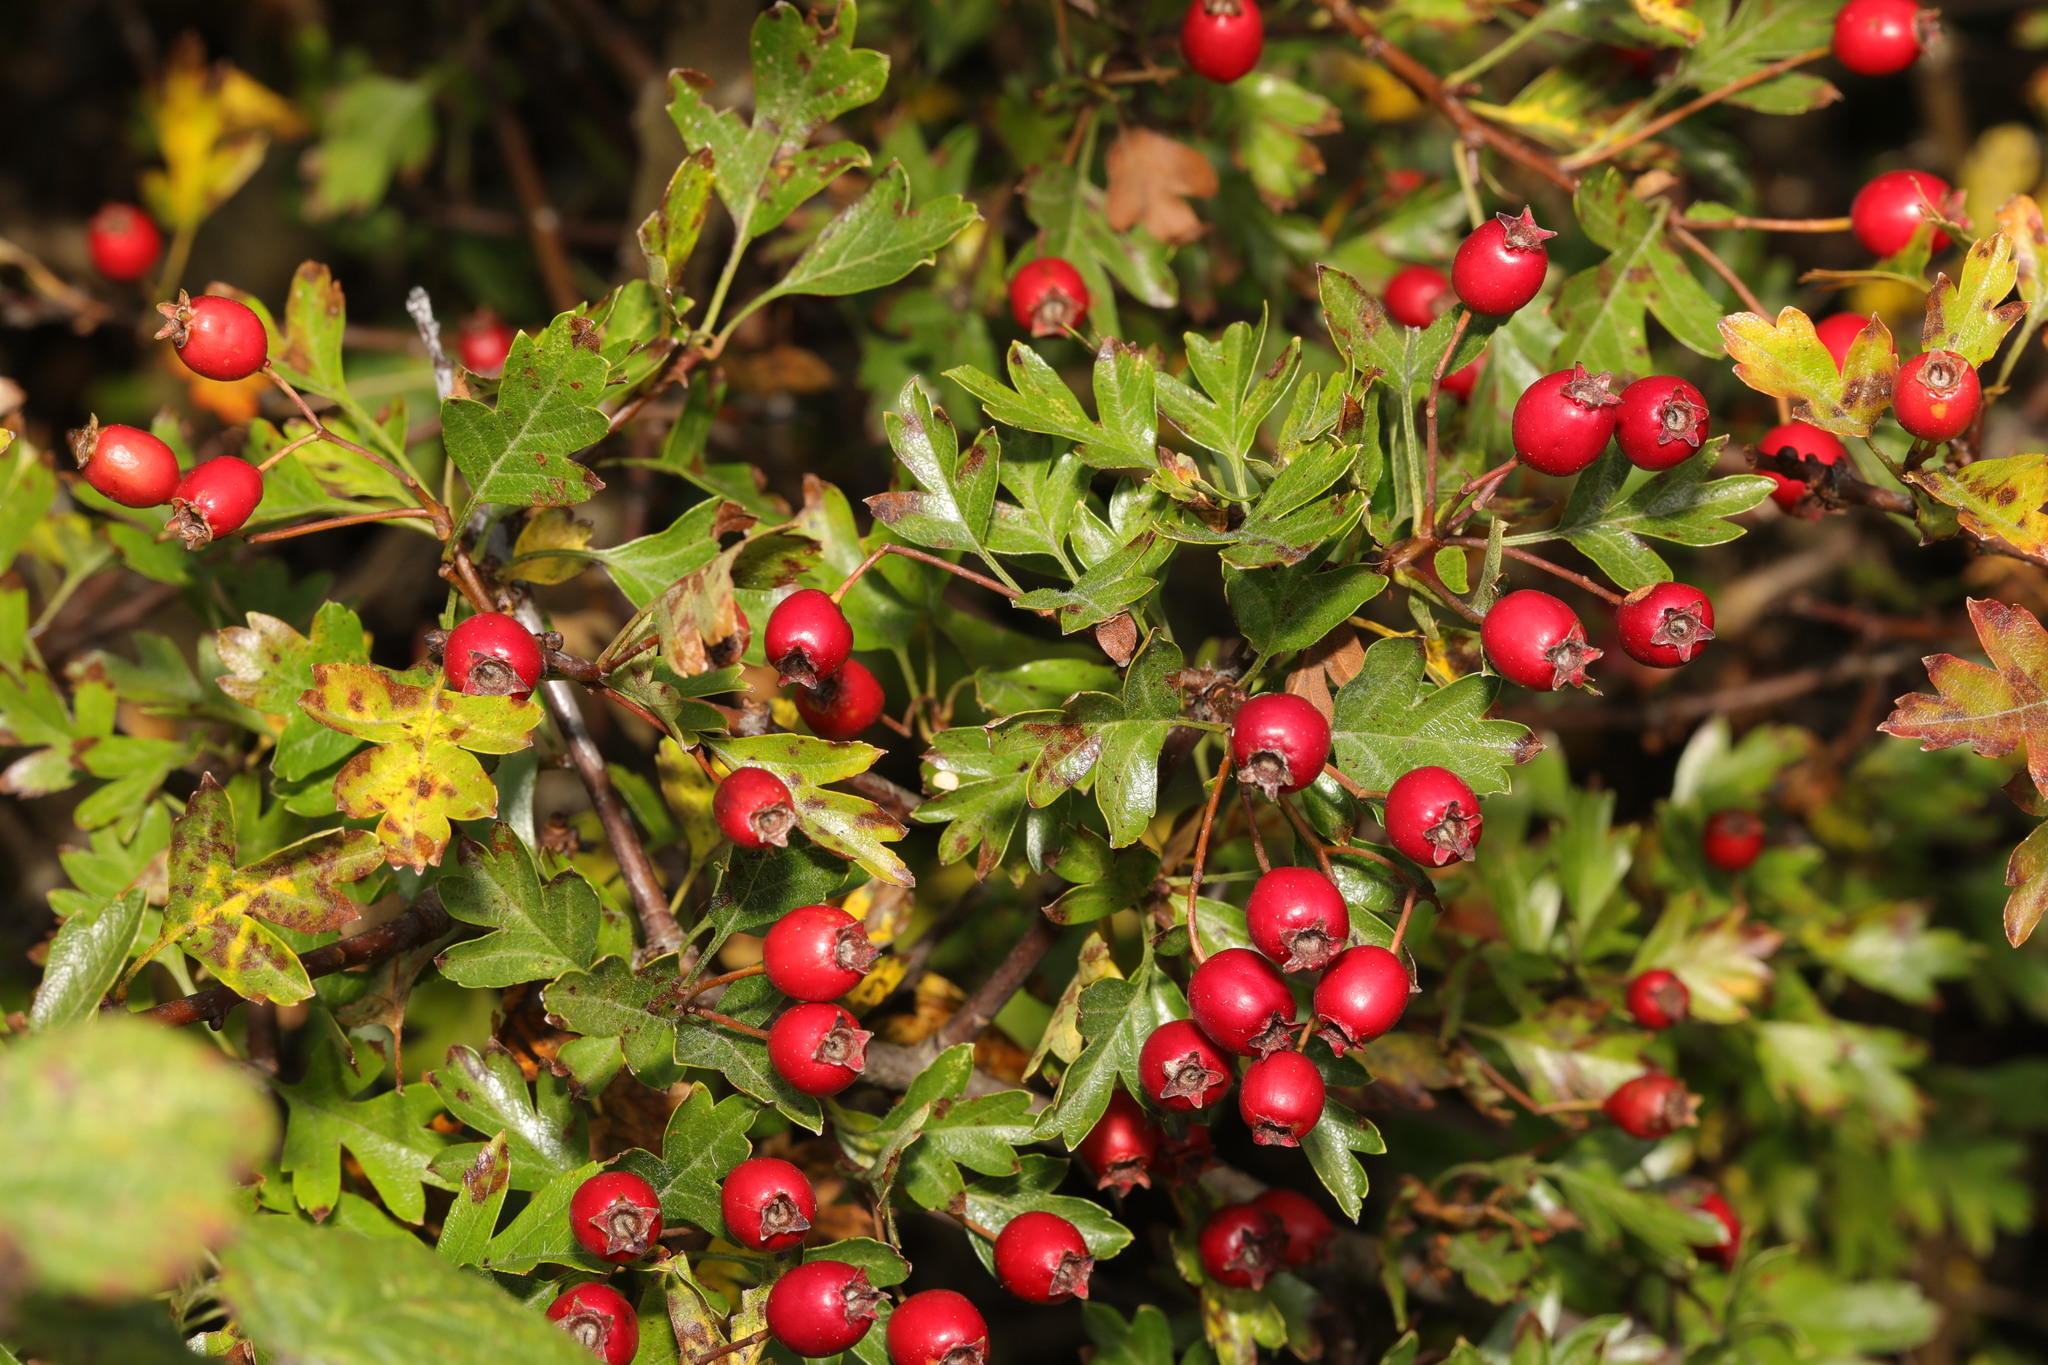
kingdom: Plantae
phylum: Tracheophyta
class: Magnoliopsida
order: Rosales
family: Rosaceae
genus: Crataegus
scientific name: Crataegus monogyna
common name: Hawthorn
